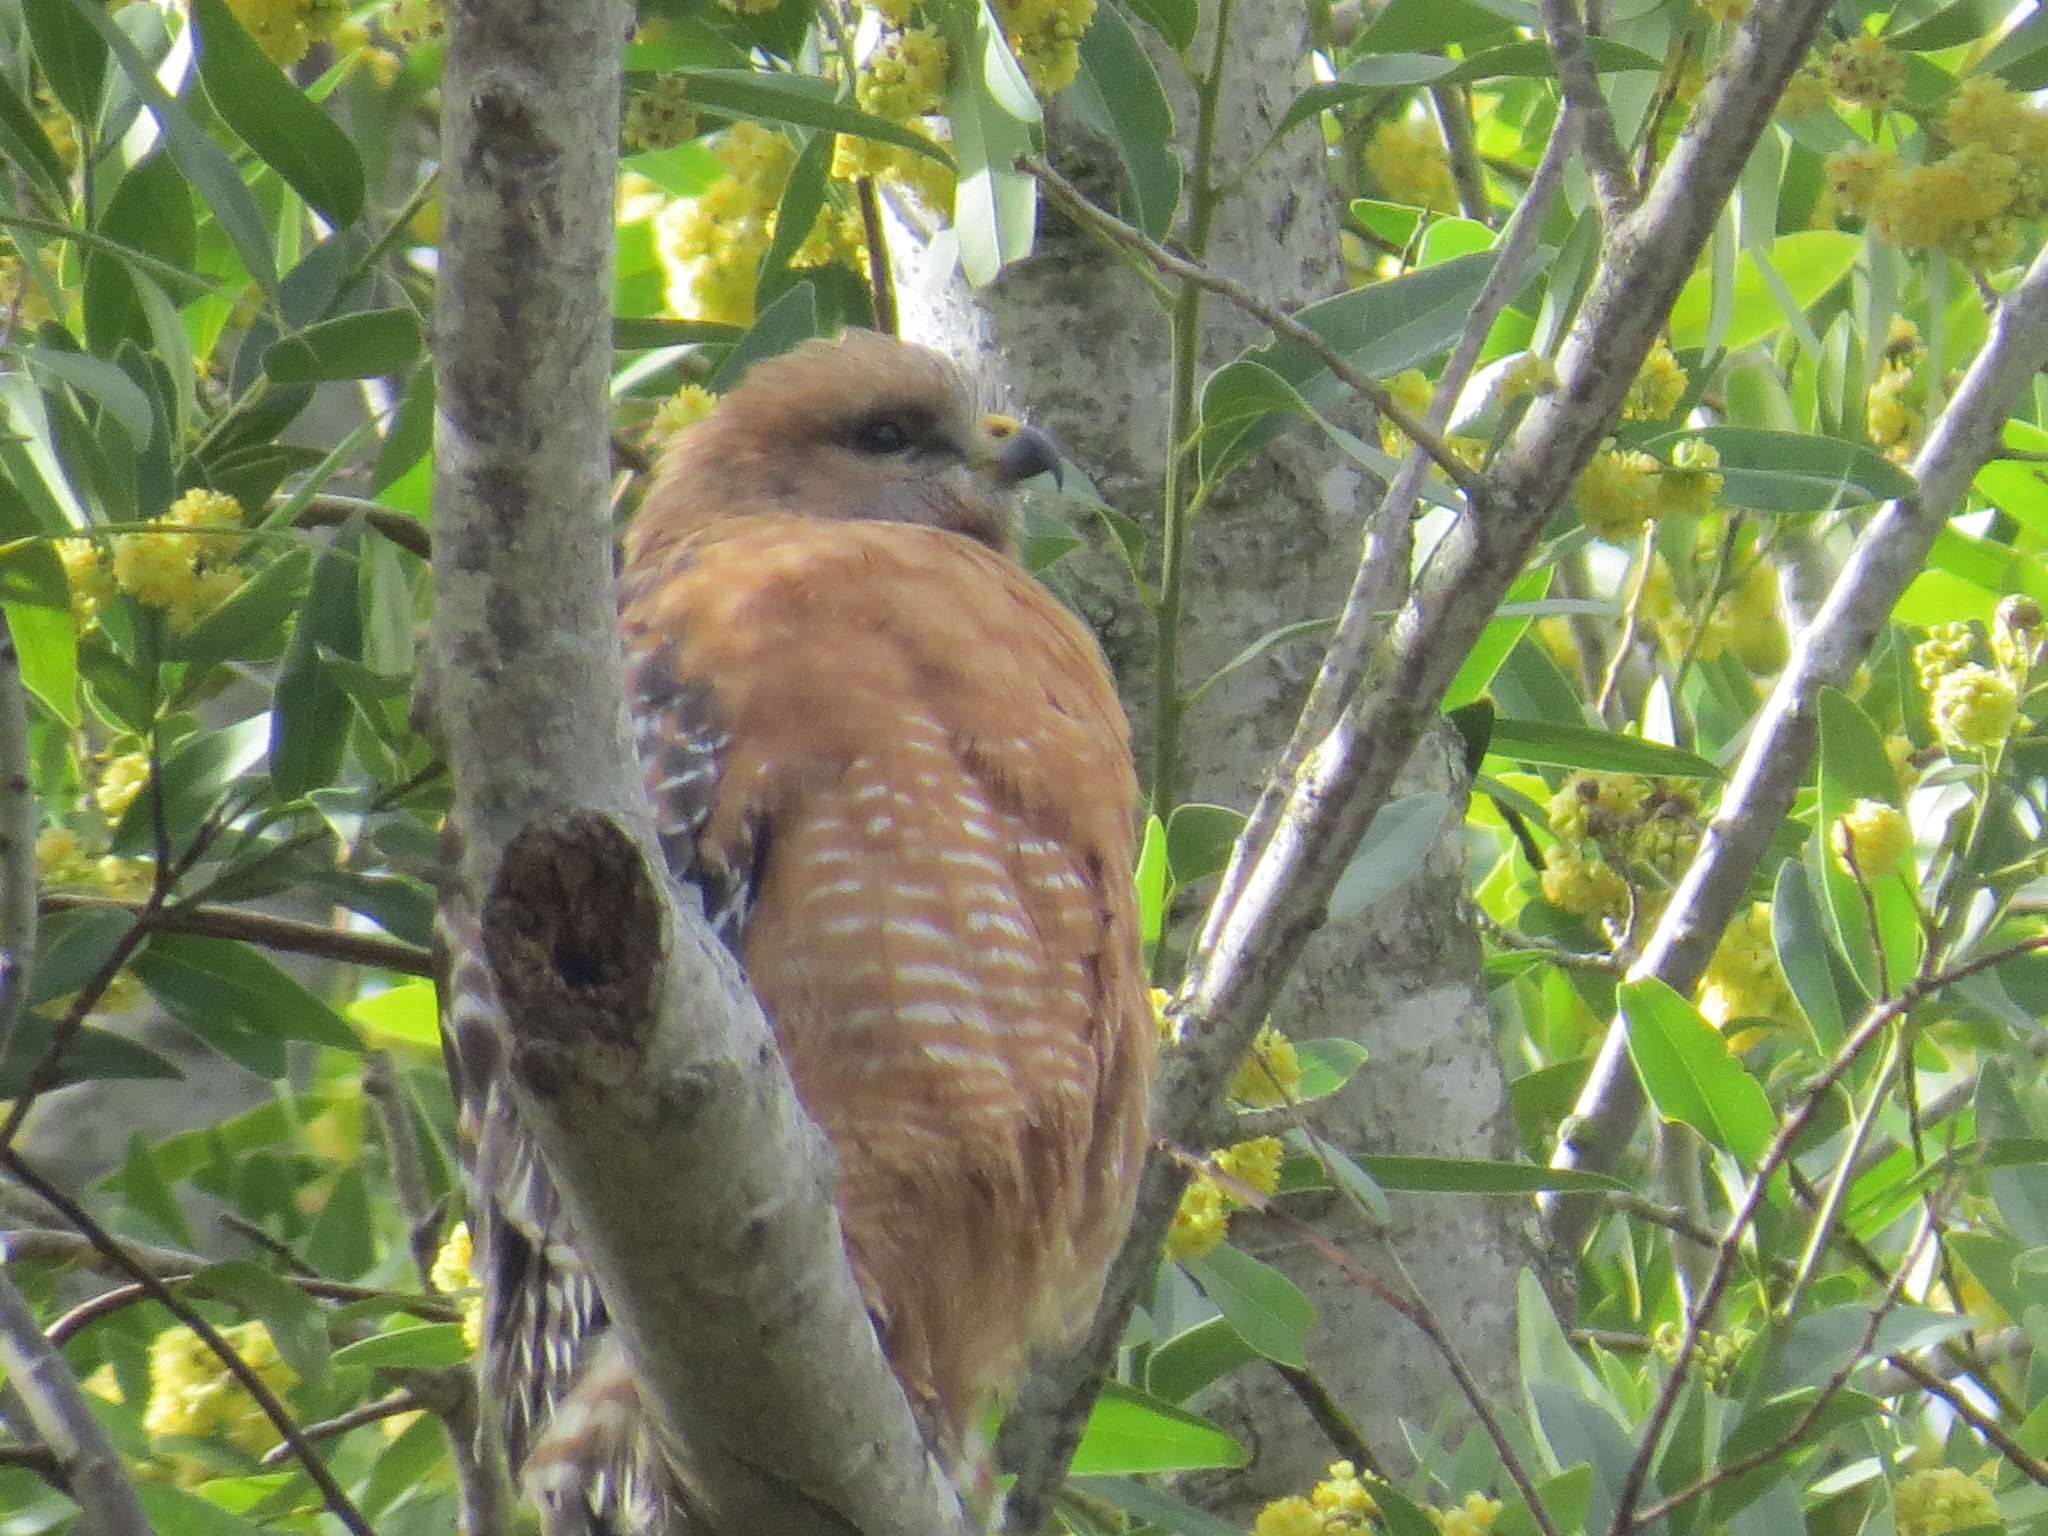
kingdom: Animalia
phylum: Chordata
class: Aves
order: Accipitriformes
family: Accipitridae
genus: Buteo
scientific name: Buteo lineatus
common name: Red-shouldered hawk
